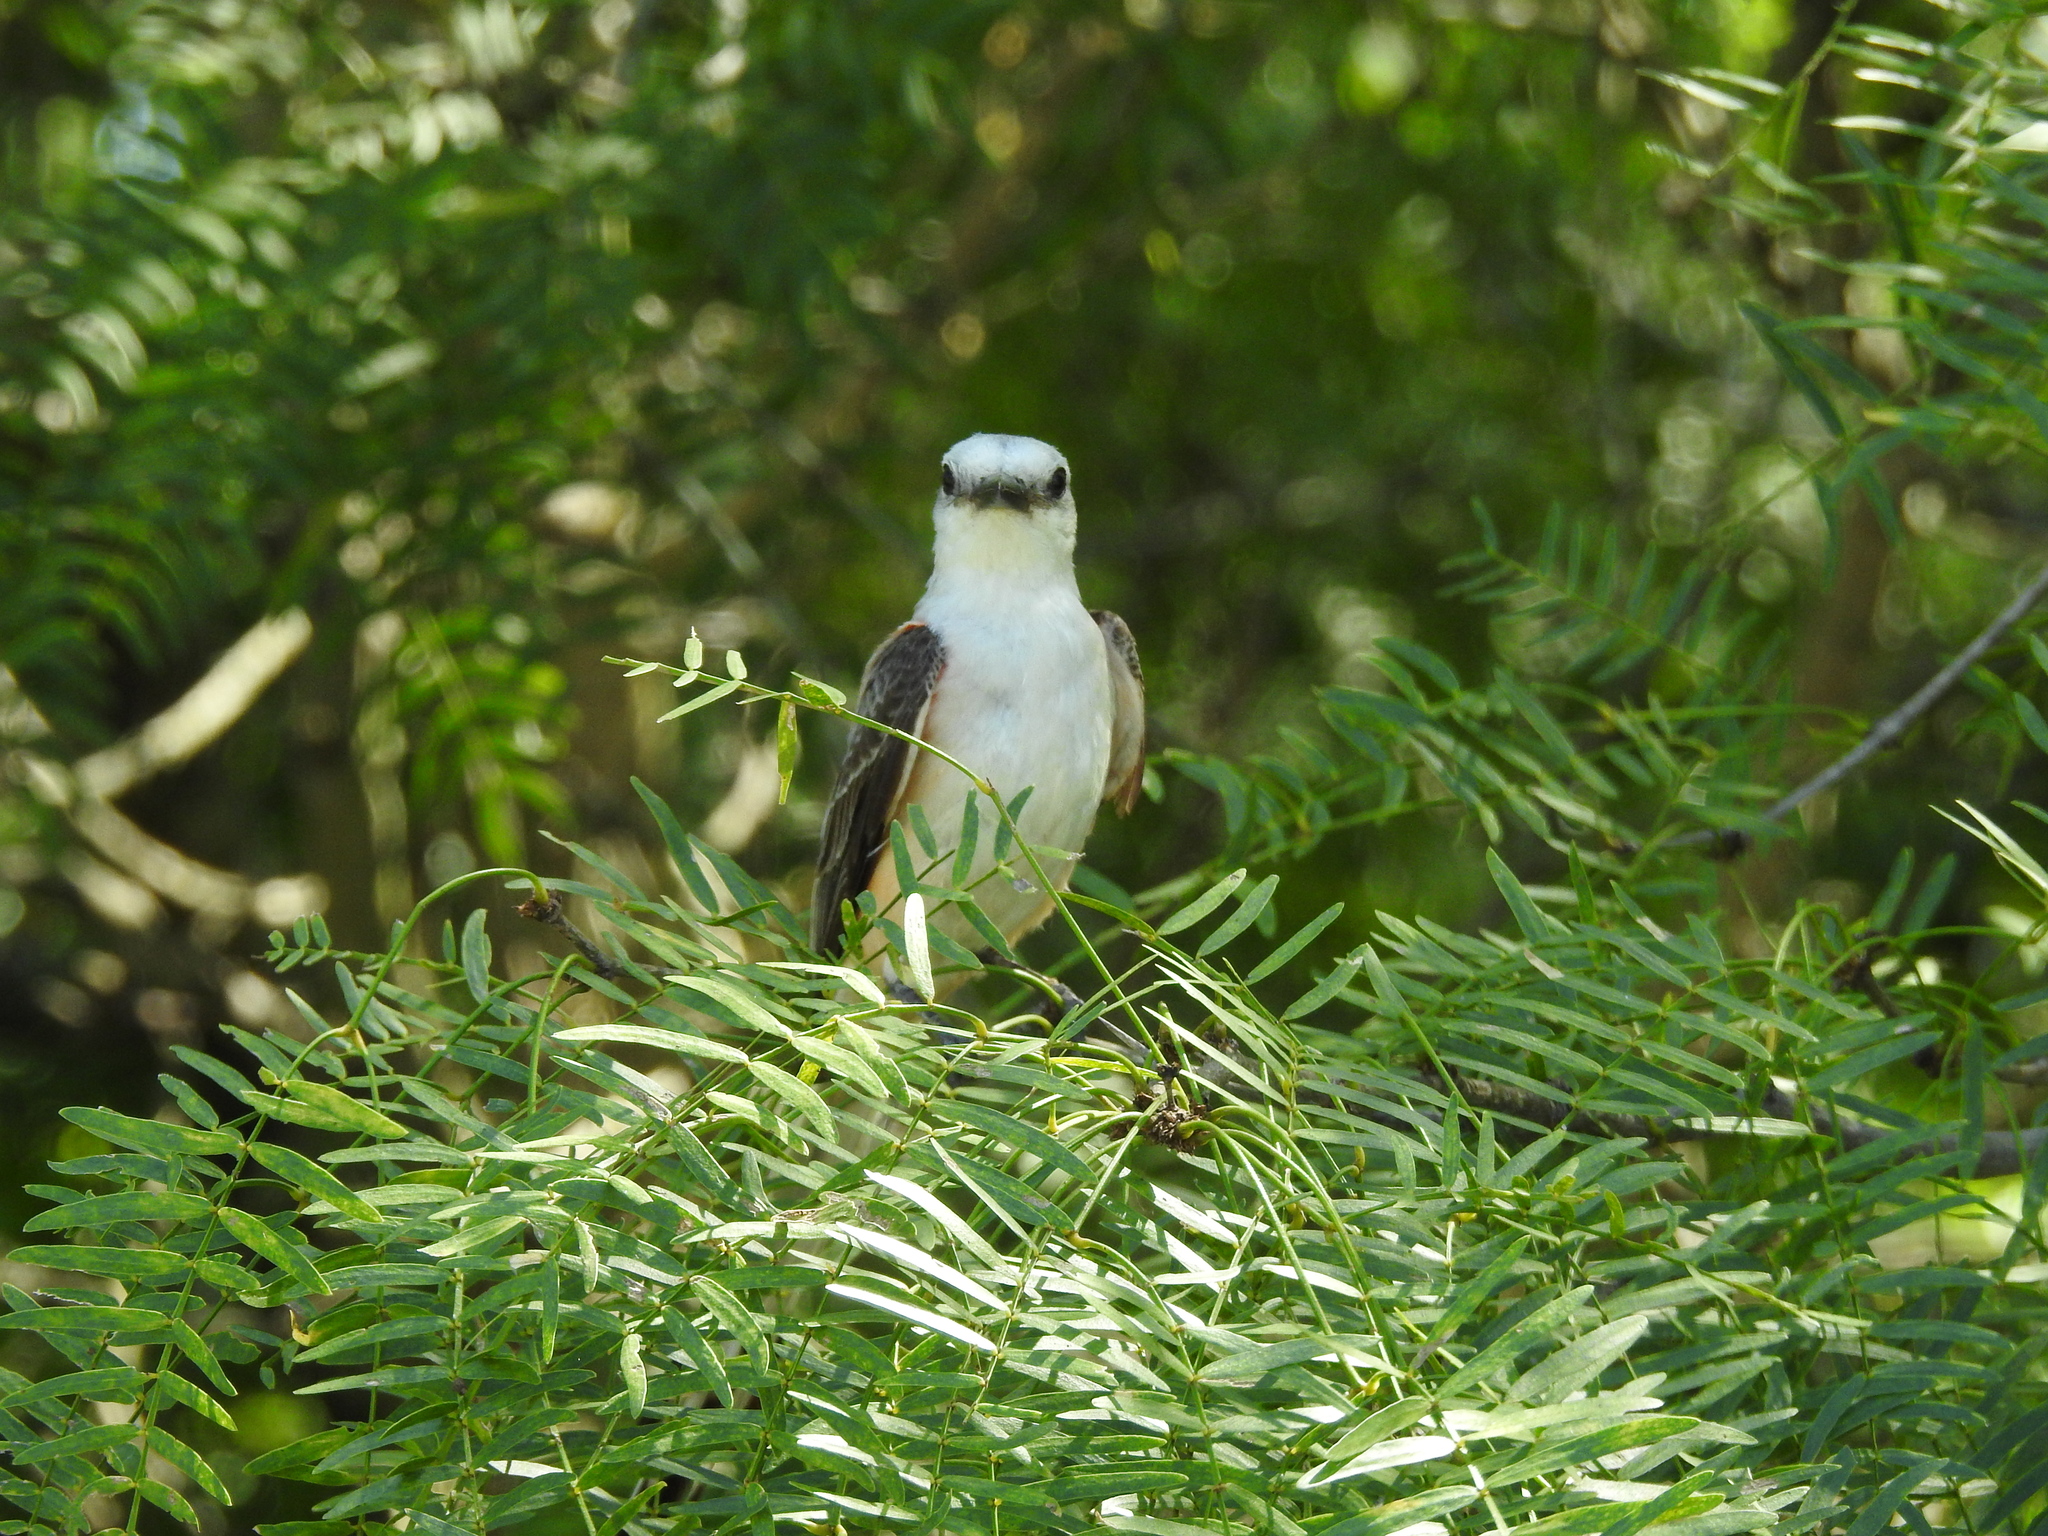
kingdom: Animalia
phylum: Chordata
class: Aves
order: Passeriformes
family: Tyrannidae
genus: Tyrannus
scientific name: Tyrannus forficatus
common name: Scissor-tailed flycatcher
